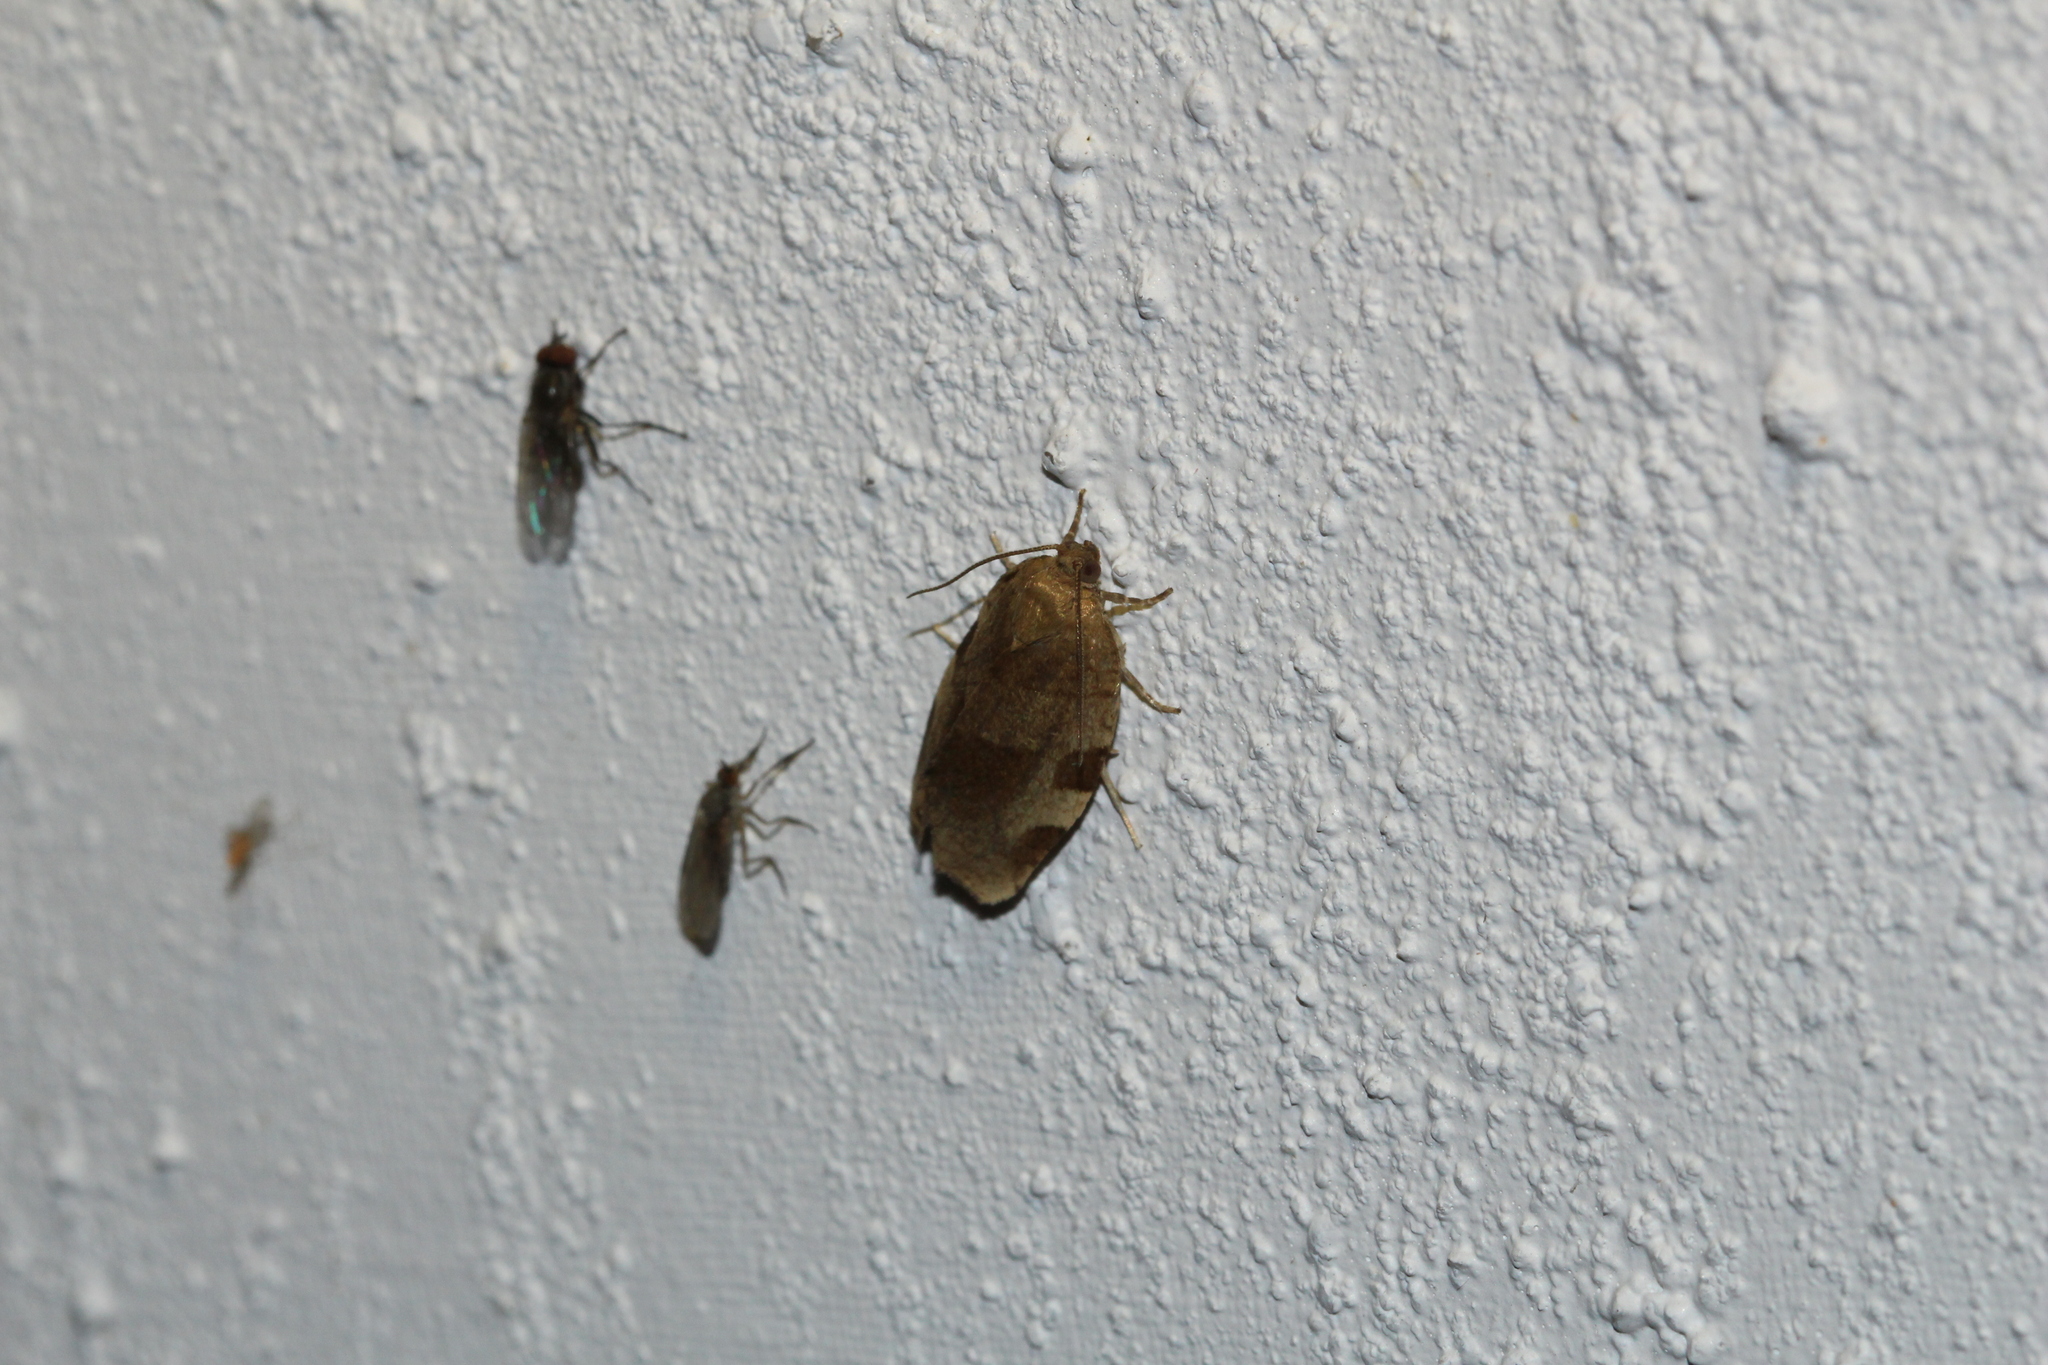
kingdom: Animalia
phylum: Arthropoda
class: Insecta
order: Lepidoptera
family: Tortricidae
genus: Choristoneura
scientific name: Choristoneura hebenstreitella
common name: Great twist
